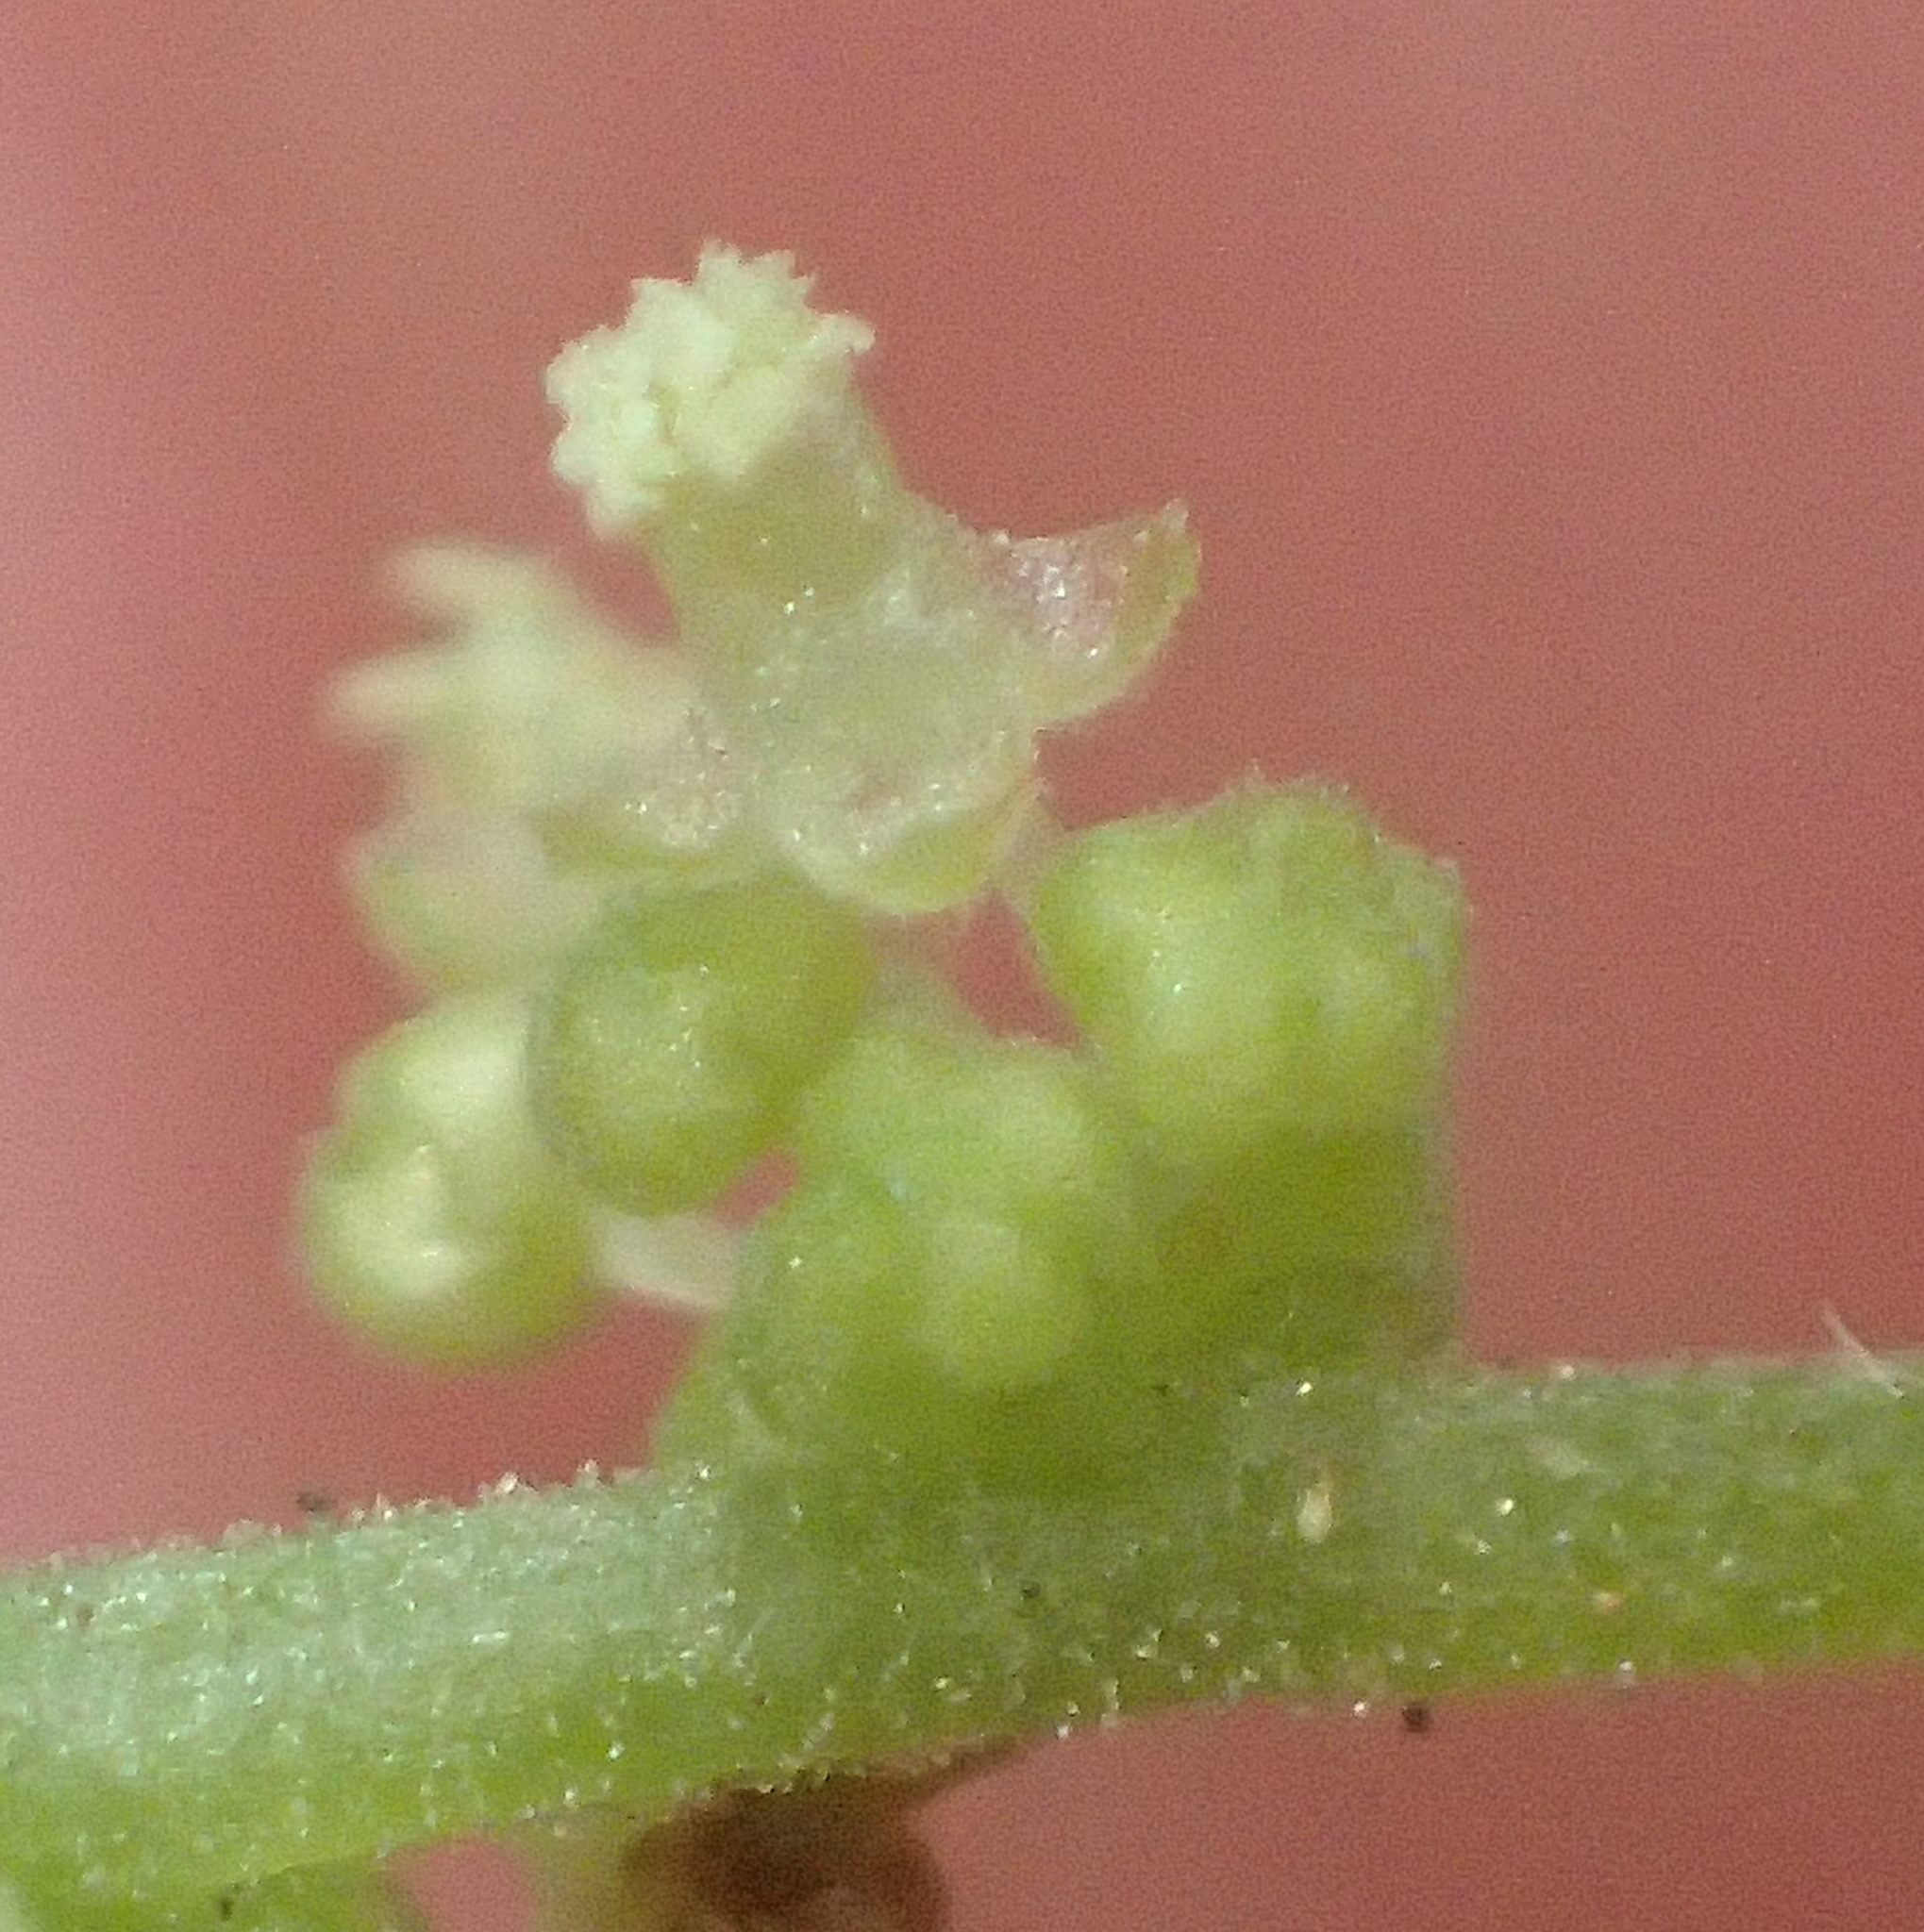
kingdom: Plantae
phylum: Tracheophyta
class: Magnoliopsida
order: Malpighiales
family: Euphorbiaceae
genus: Bernardia
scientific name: Bernardia corensis
